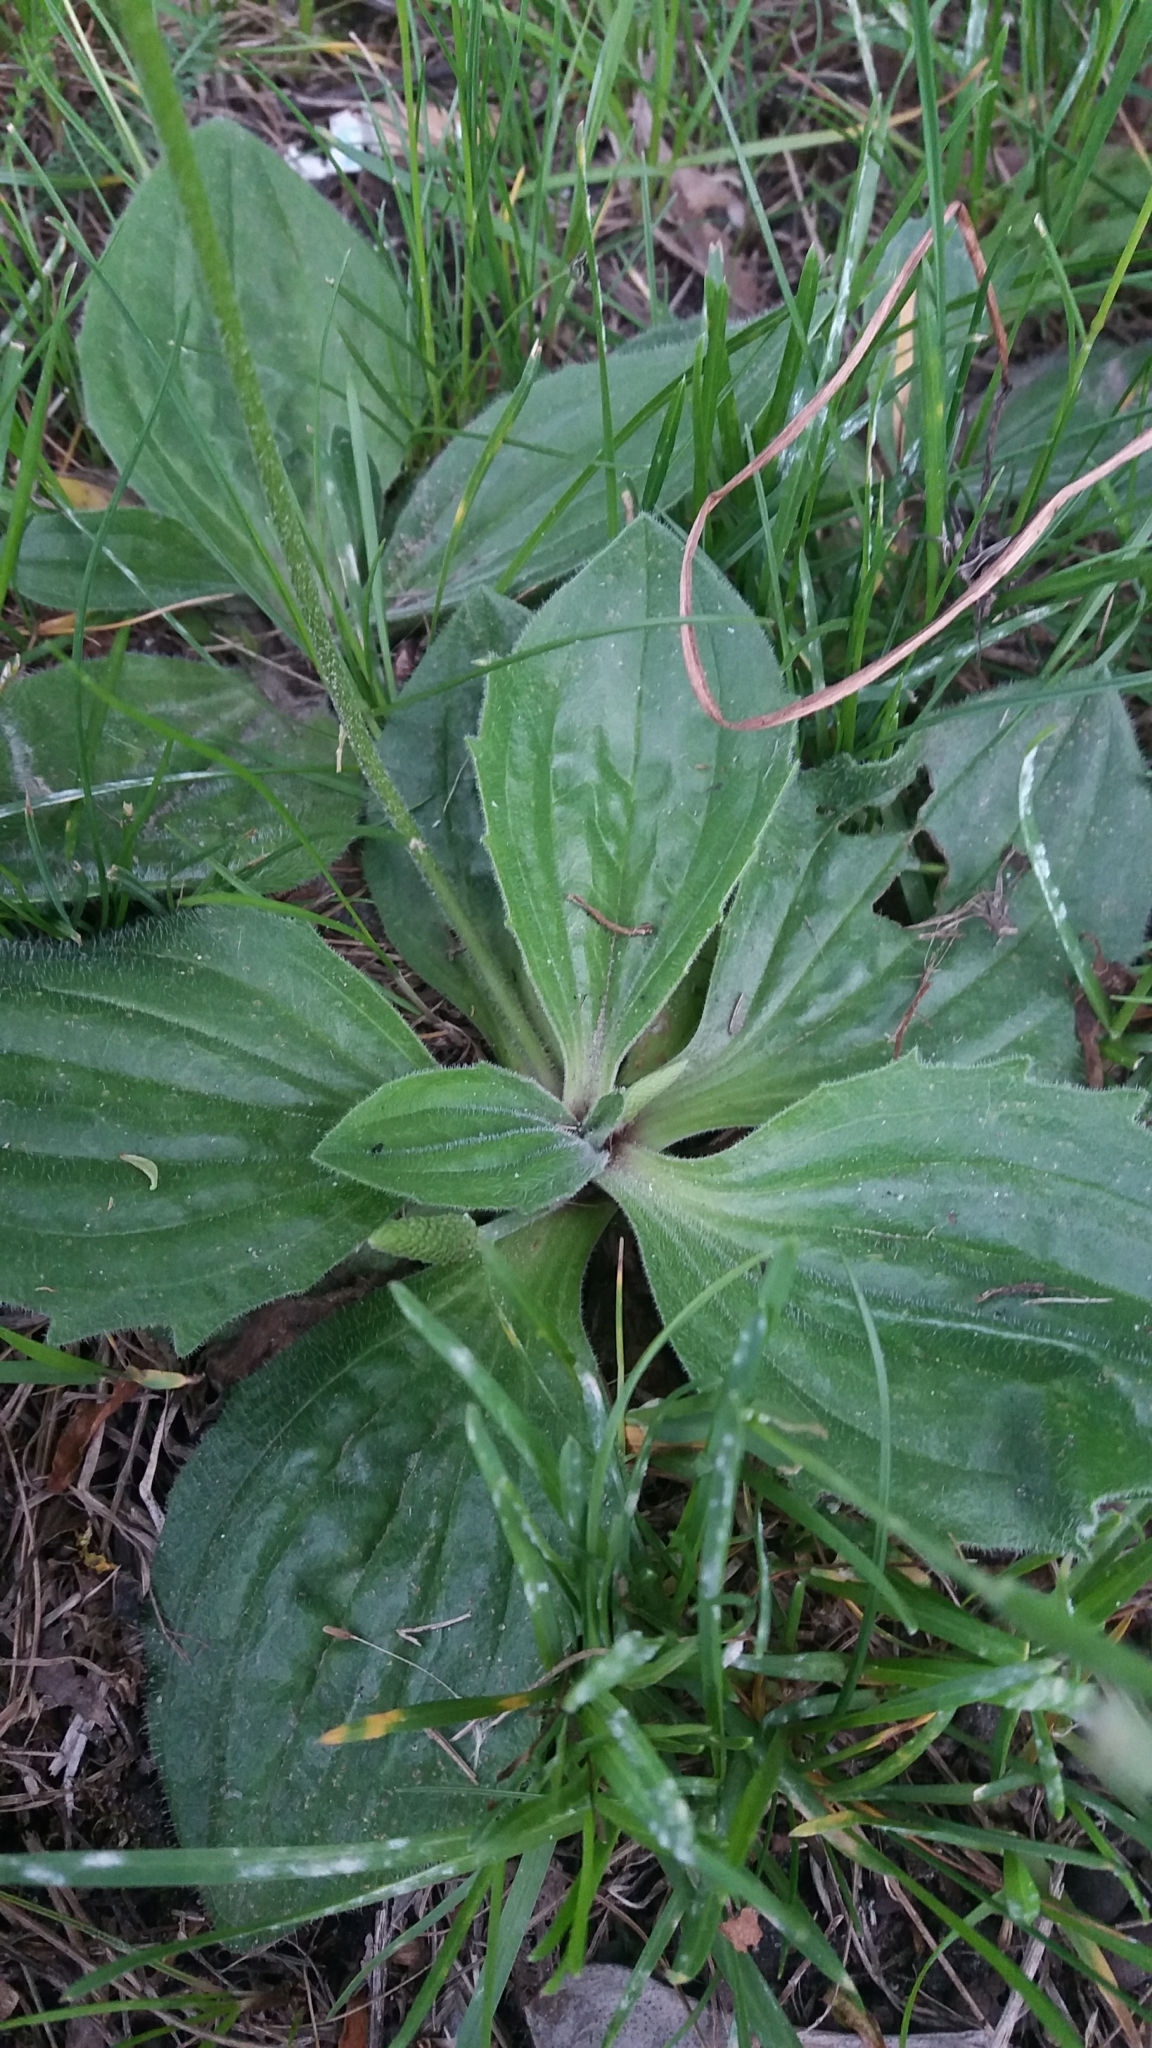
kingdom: Plantae
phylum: Tracheophyta
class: Magnoliopsida
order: Lamiales
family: Plantaginaceae
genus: Plantago
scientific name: Plantago media
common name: Hoary plantain
